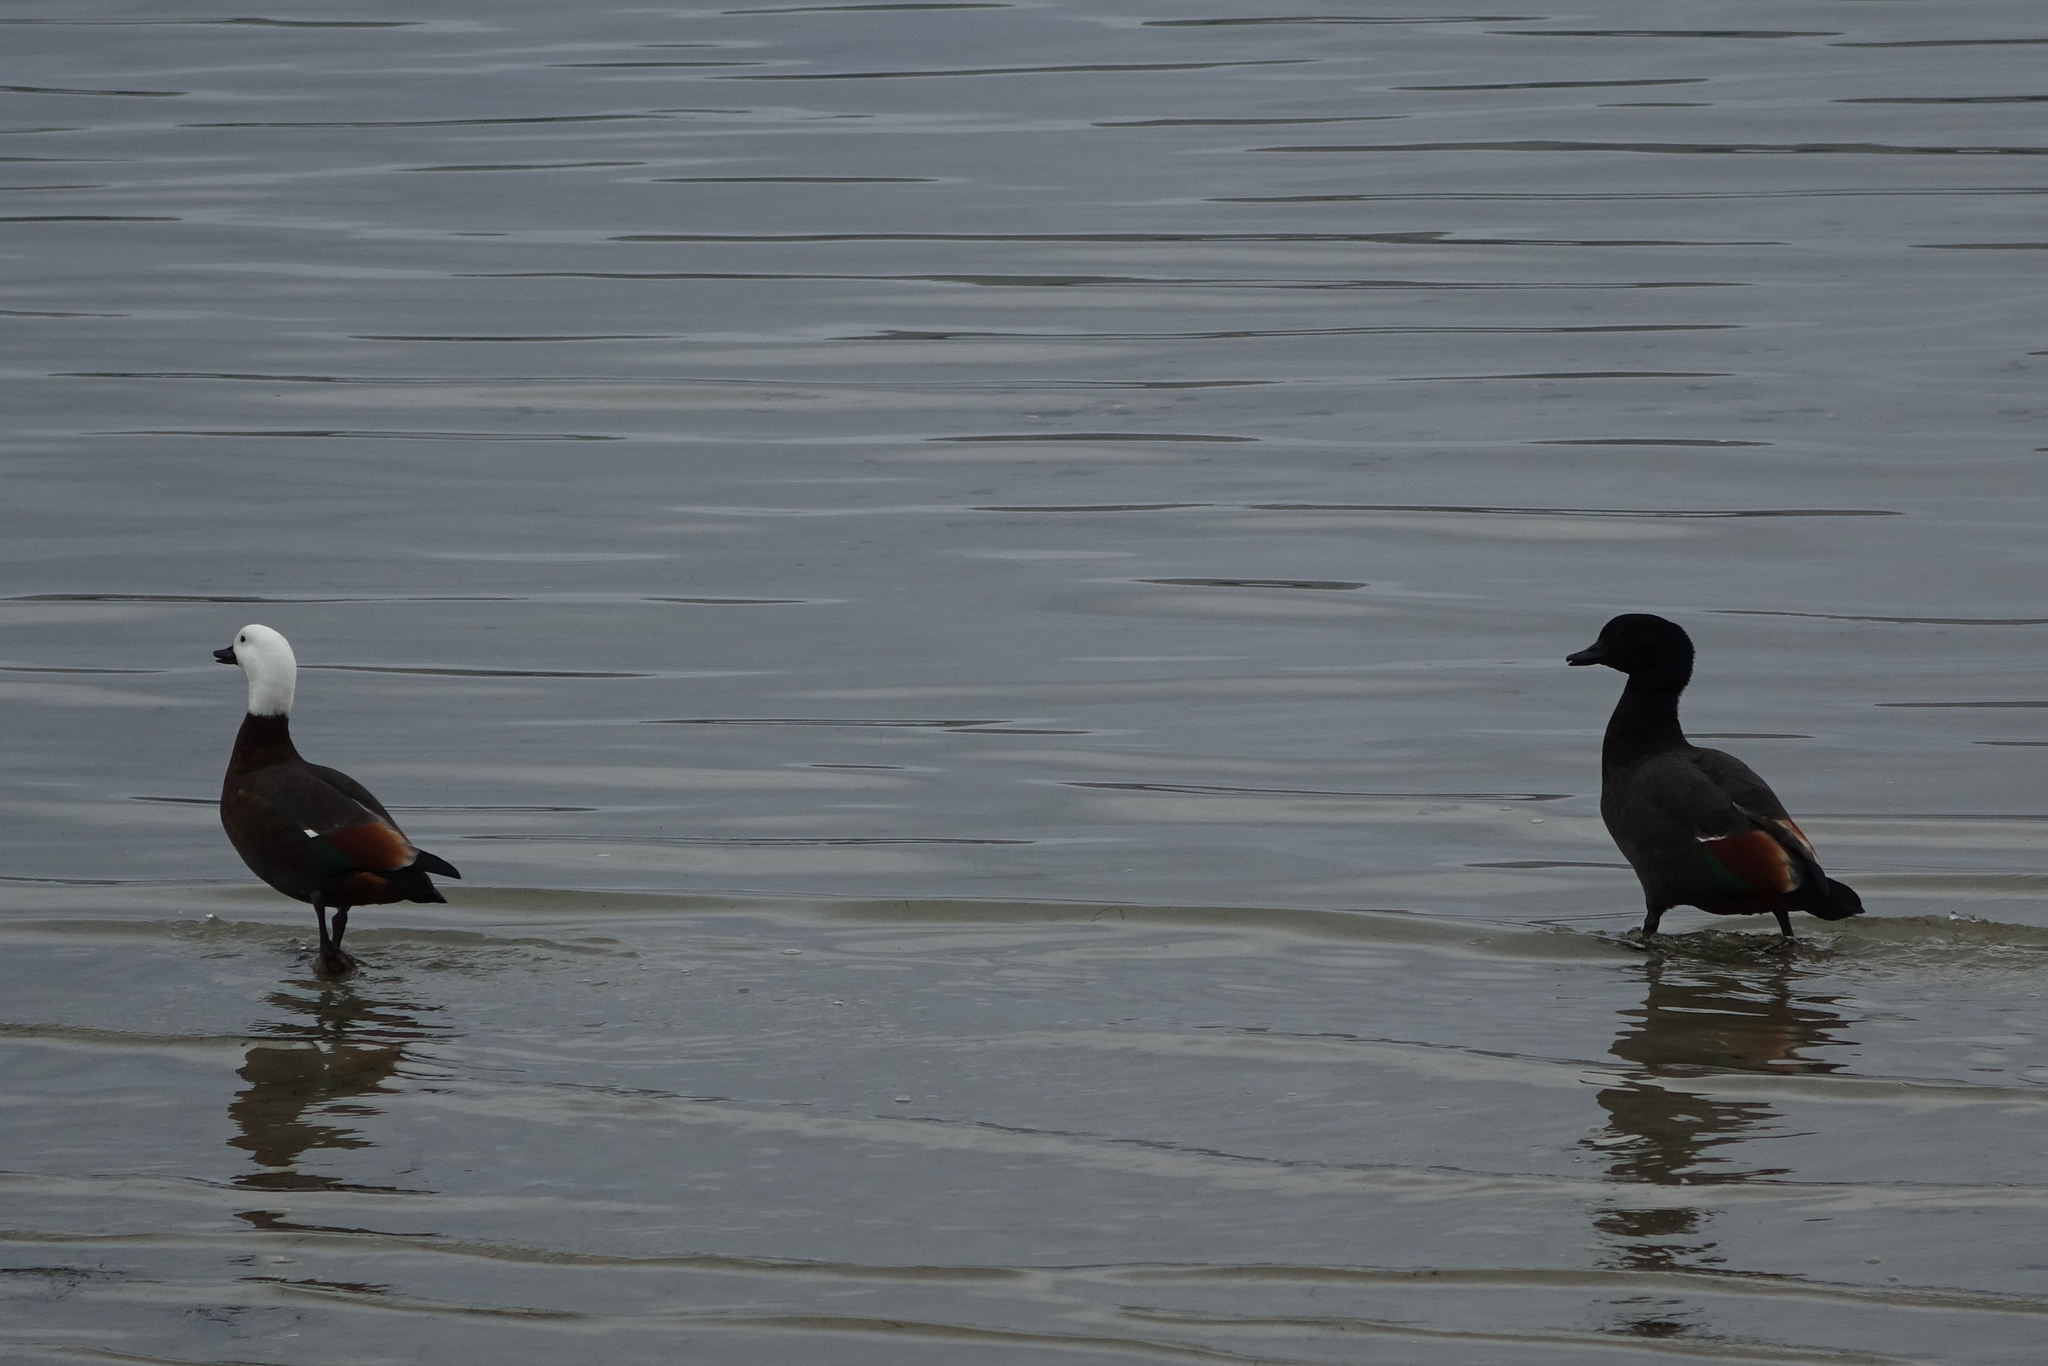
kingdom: Animalia
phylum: Chordata
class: Aves
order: Anseriformes
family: Anatidae
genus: Tadorna
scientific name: Tadorna variegata
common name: Paradise shelduck
